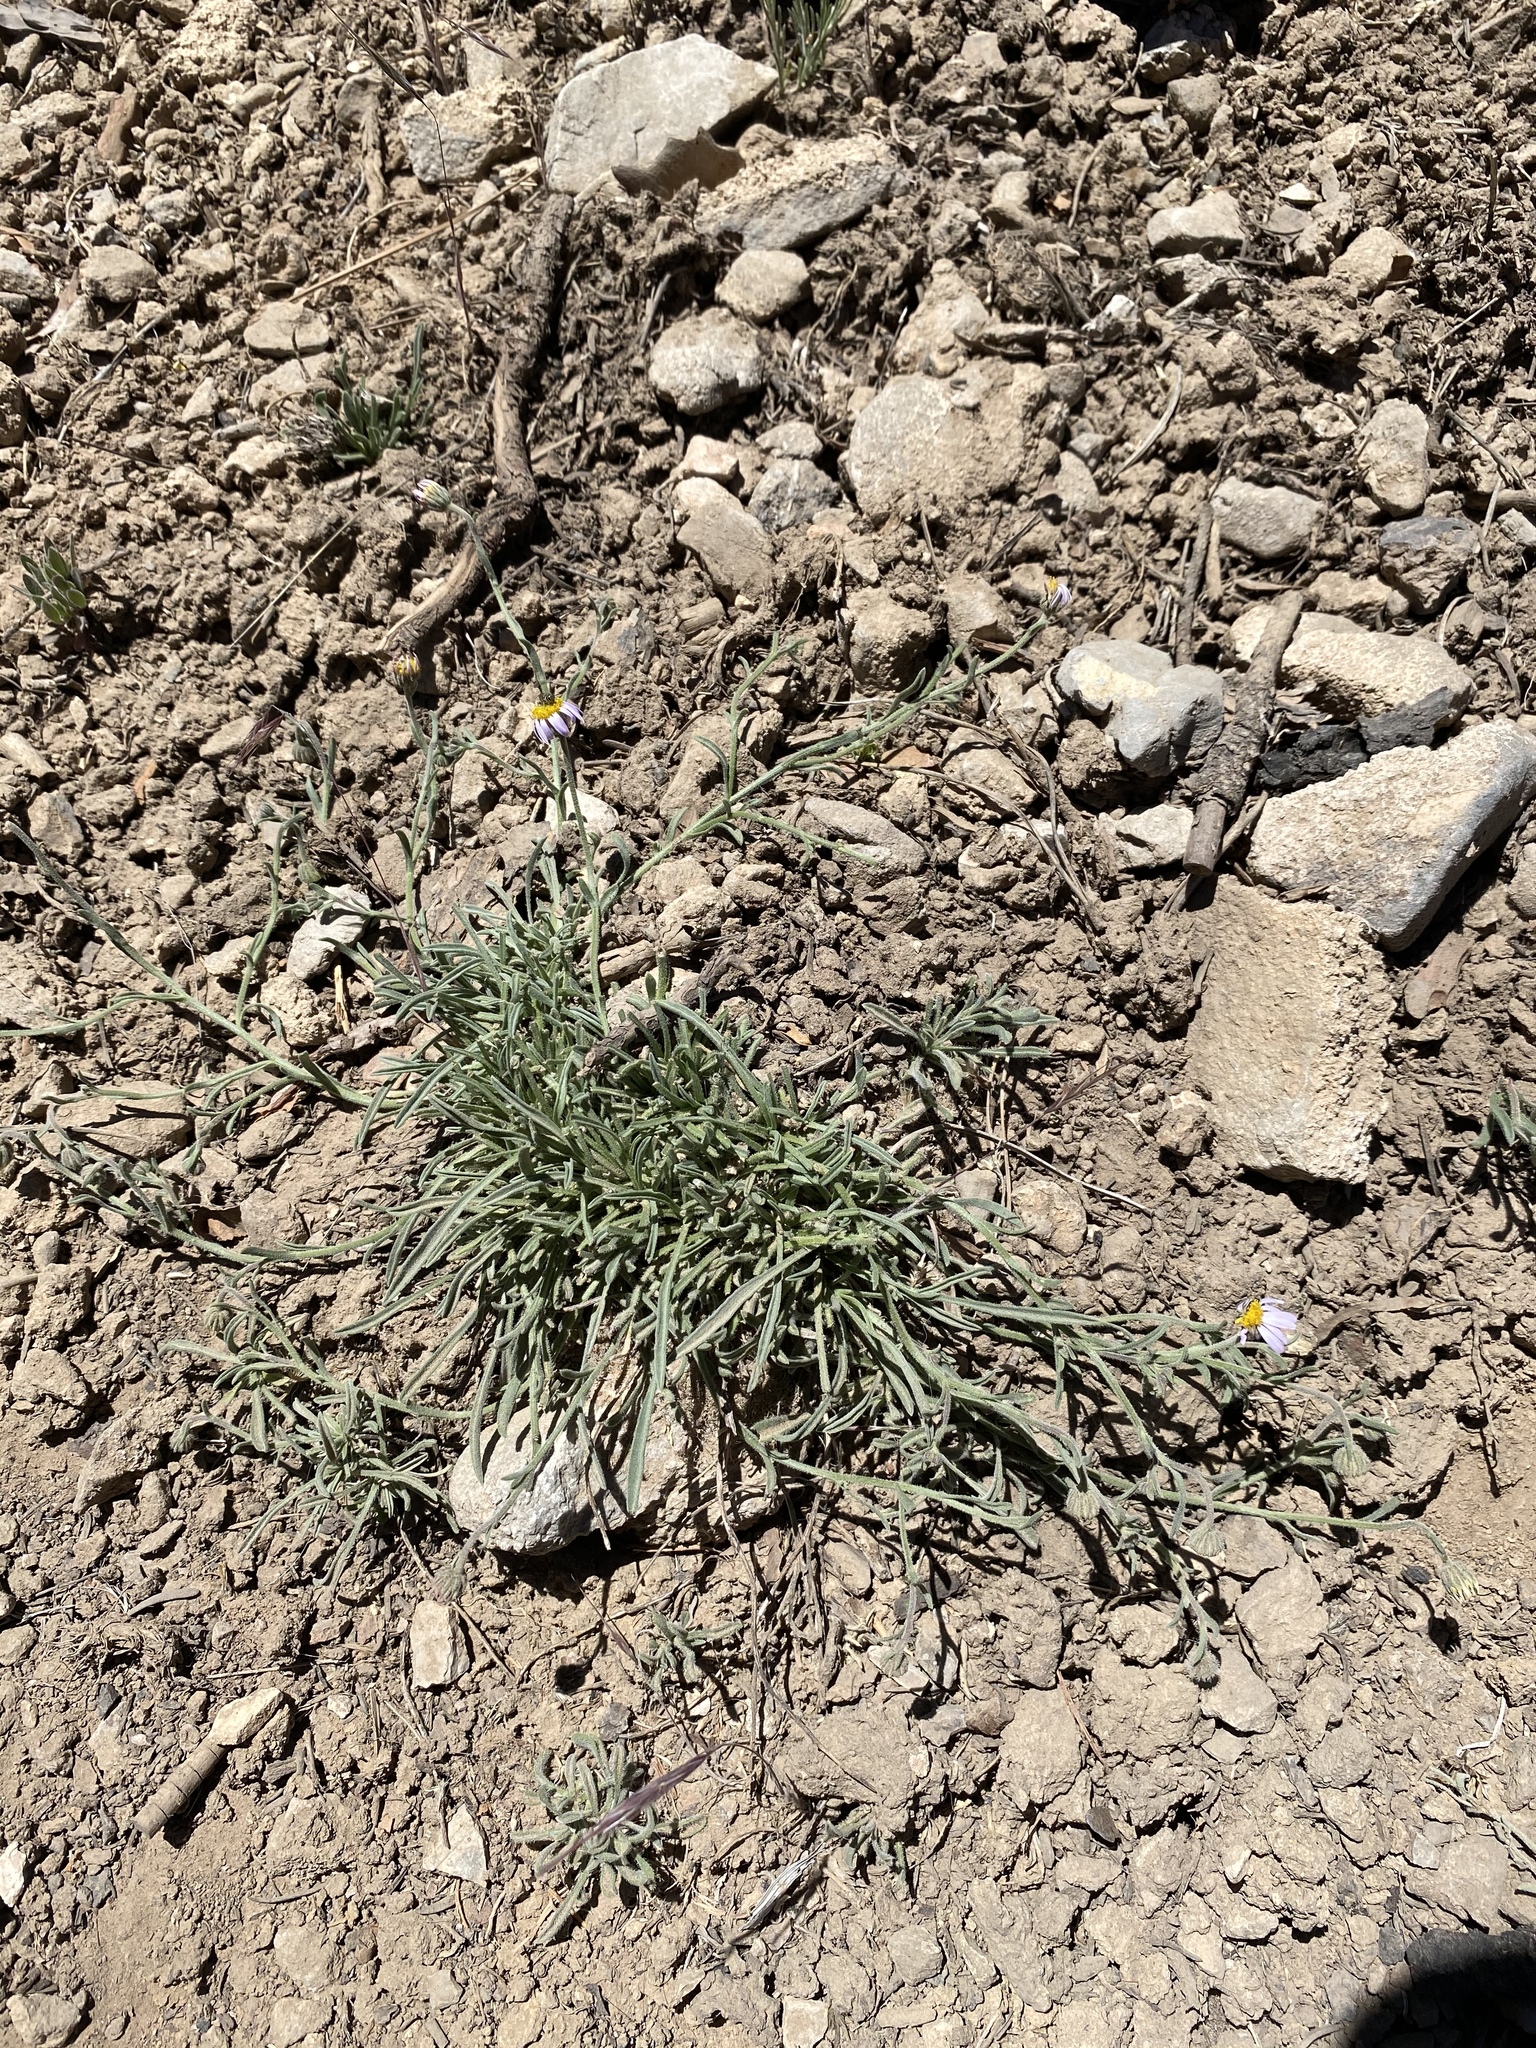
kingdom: Plantae
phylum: Tracheophyta
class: Magnoliopsida
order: Asterales
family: Asteraceae
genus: Erigeron
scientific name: Erigeron clokeyi
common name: Clokey's fleabane
